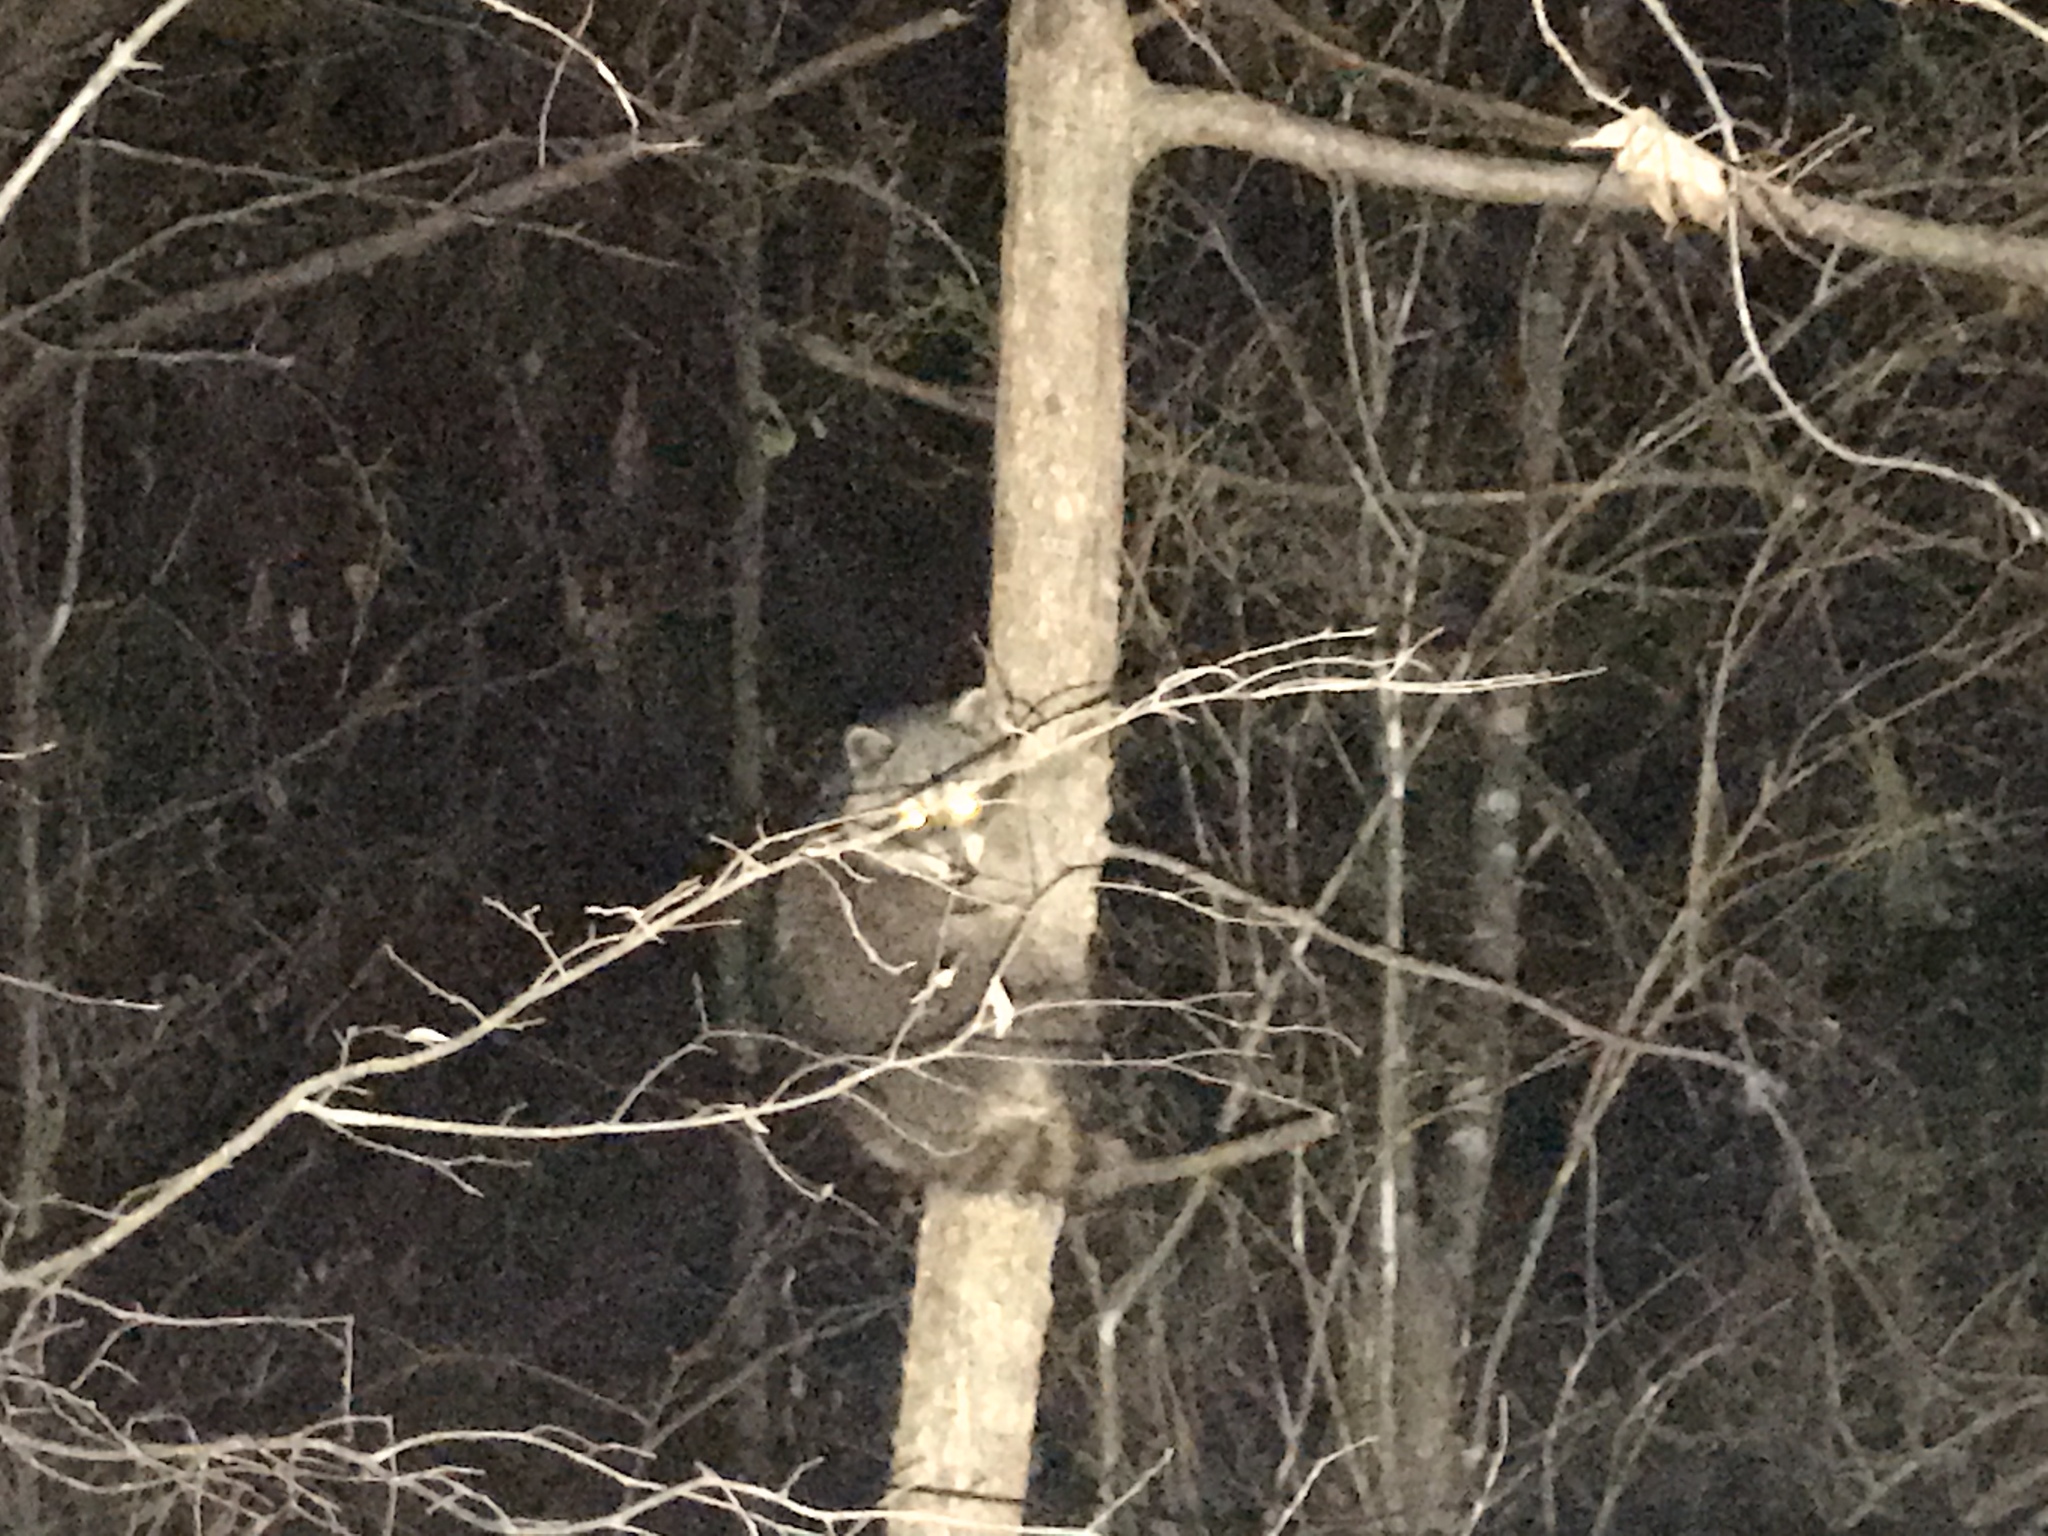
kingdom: Animalia
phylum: Chordata
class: Mammalia
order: Carnivora
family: Procyonidae
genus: Procyon
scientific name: Procyon lotor
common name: Raccoon
